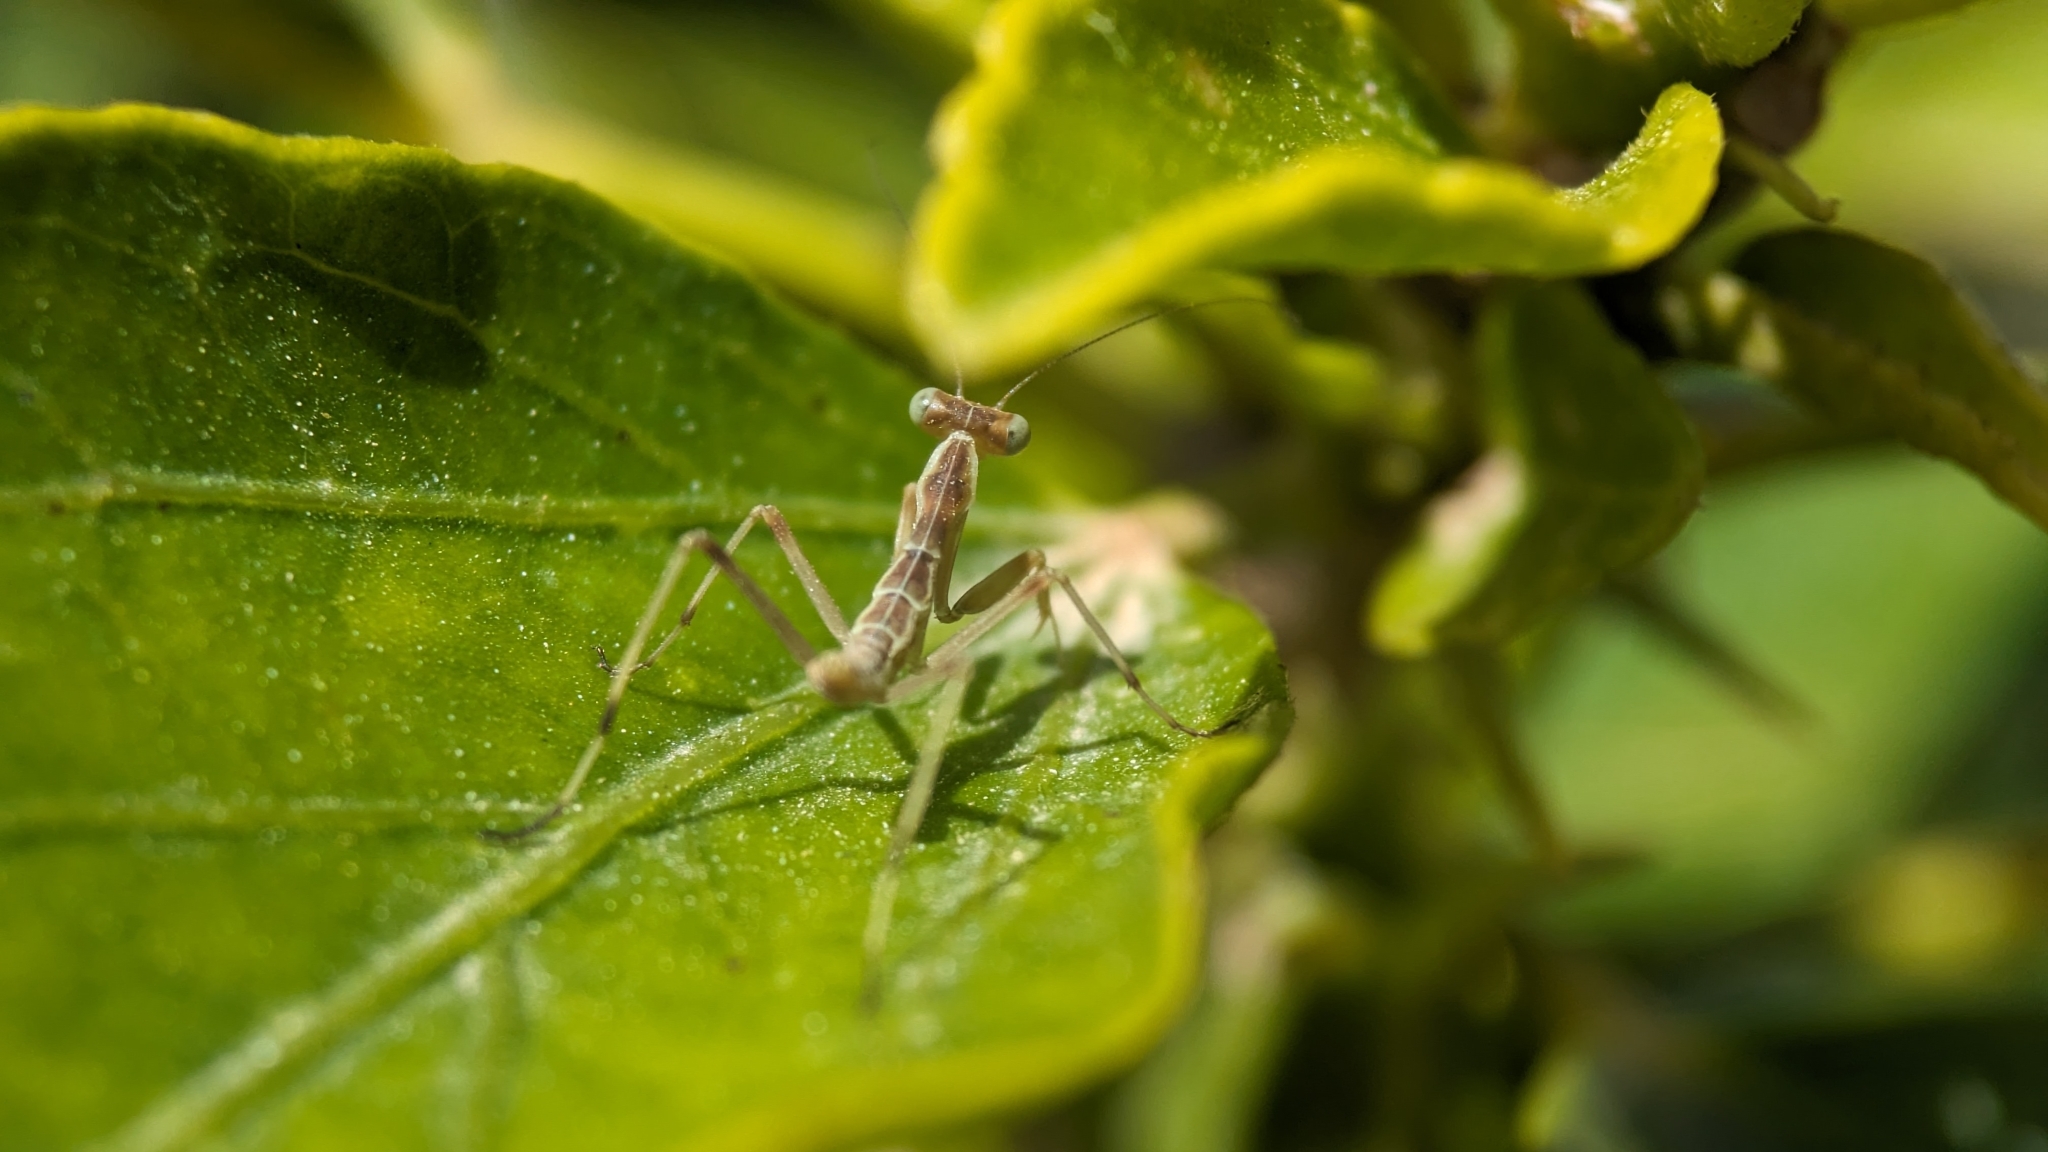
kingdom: Animalia
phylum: Arthropoda
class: Insecta
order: Mantodea
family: Mantidae
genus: Sphodromantis
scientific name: Sphodromantis viridis
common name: Giant african mantis
